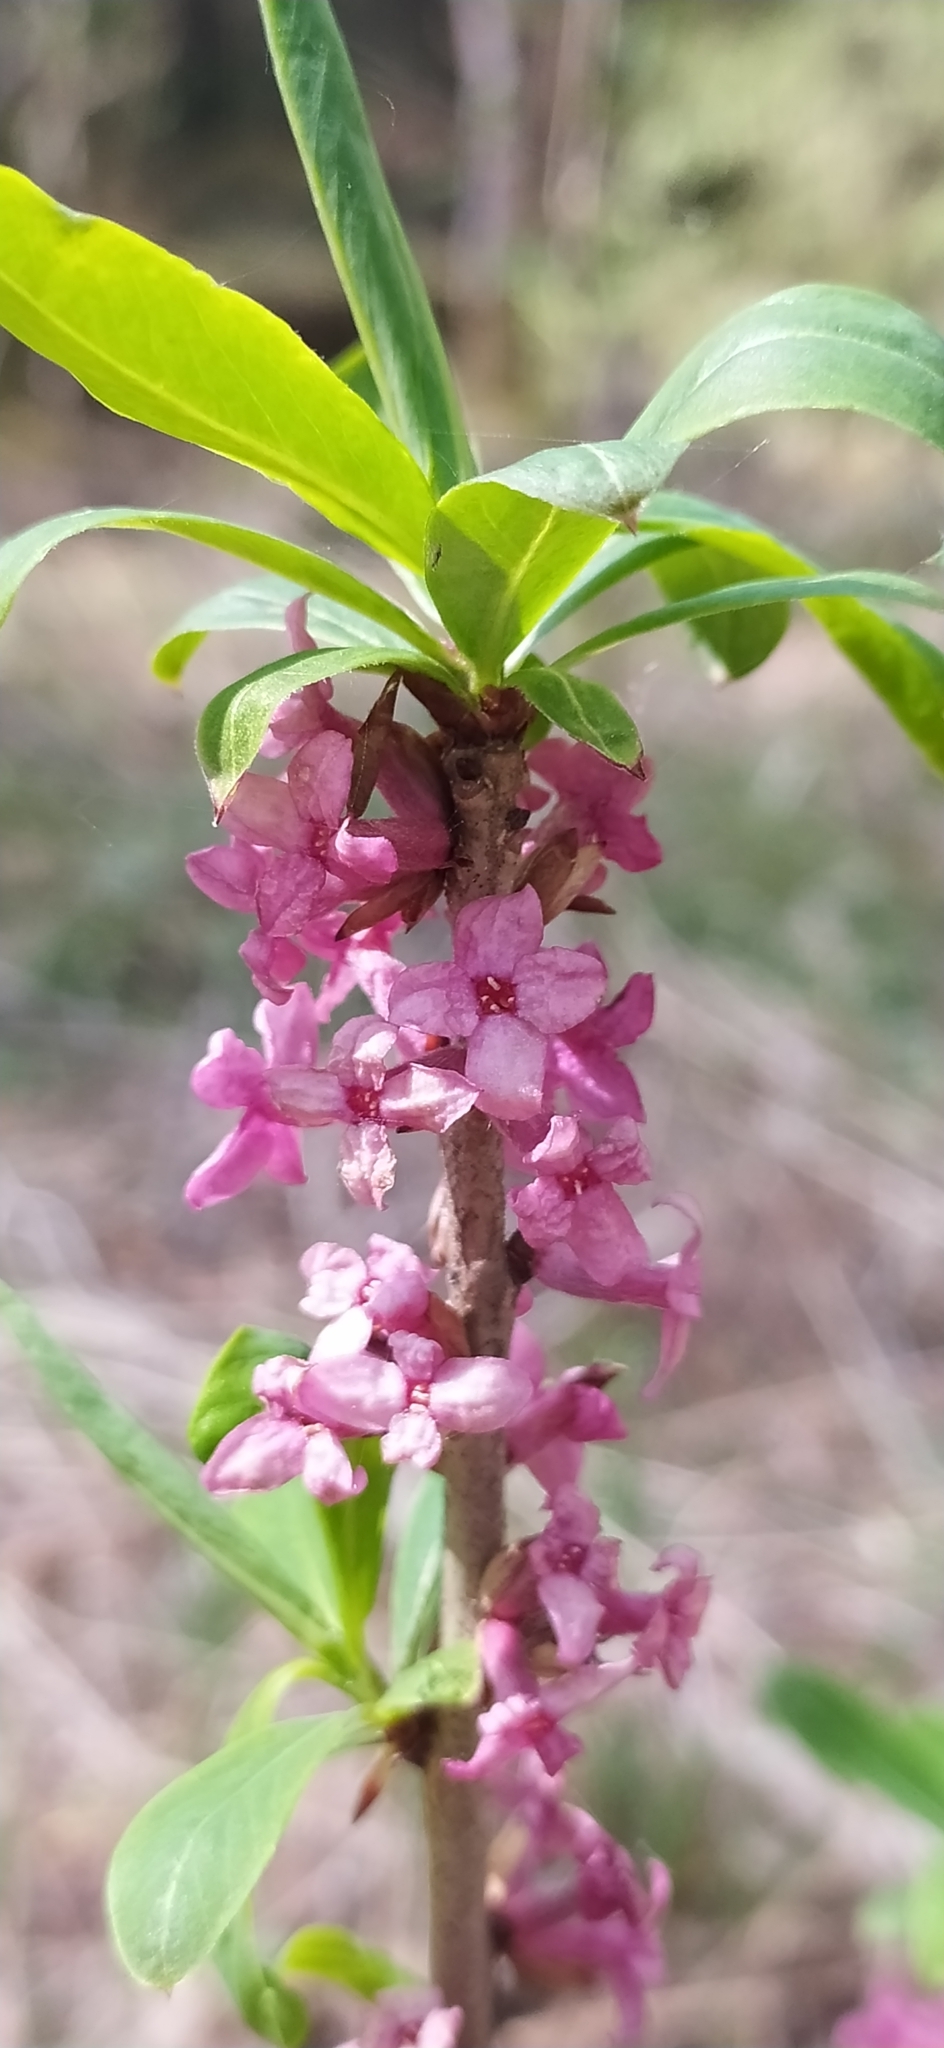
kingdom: Plantae
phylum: Tracheophyta
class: Magnoliopsida
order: Malvales
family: Thymelaeaceae
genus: Daphne
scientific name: Daphne mezereum
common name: Mezereon
